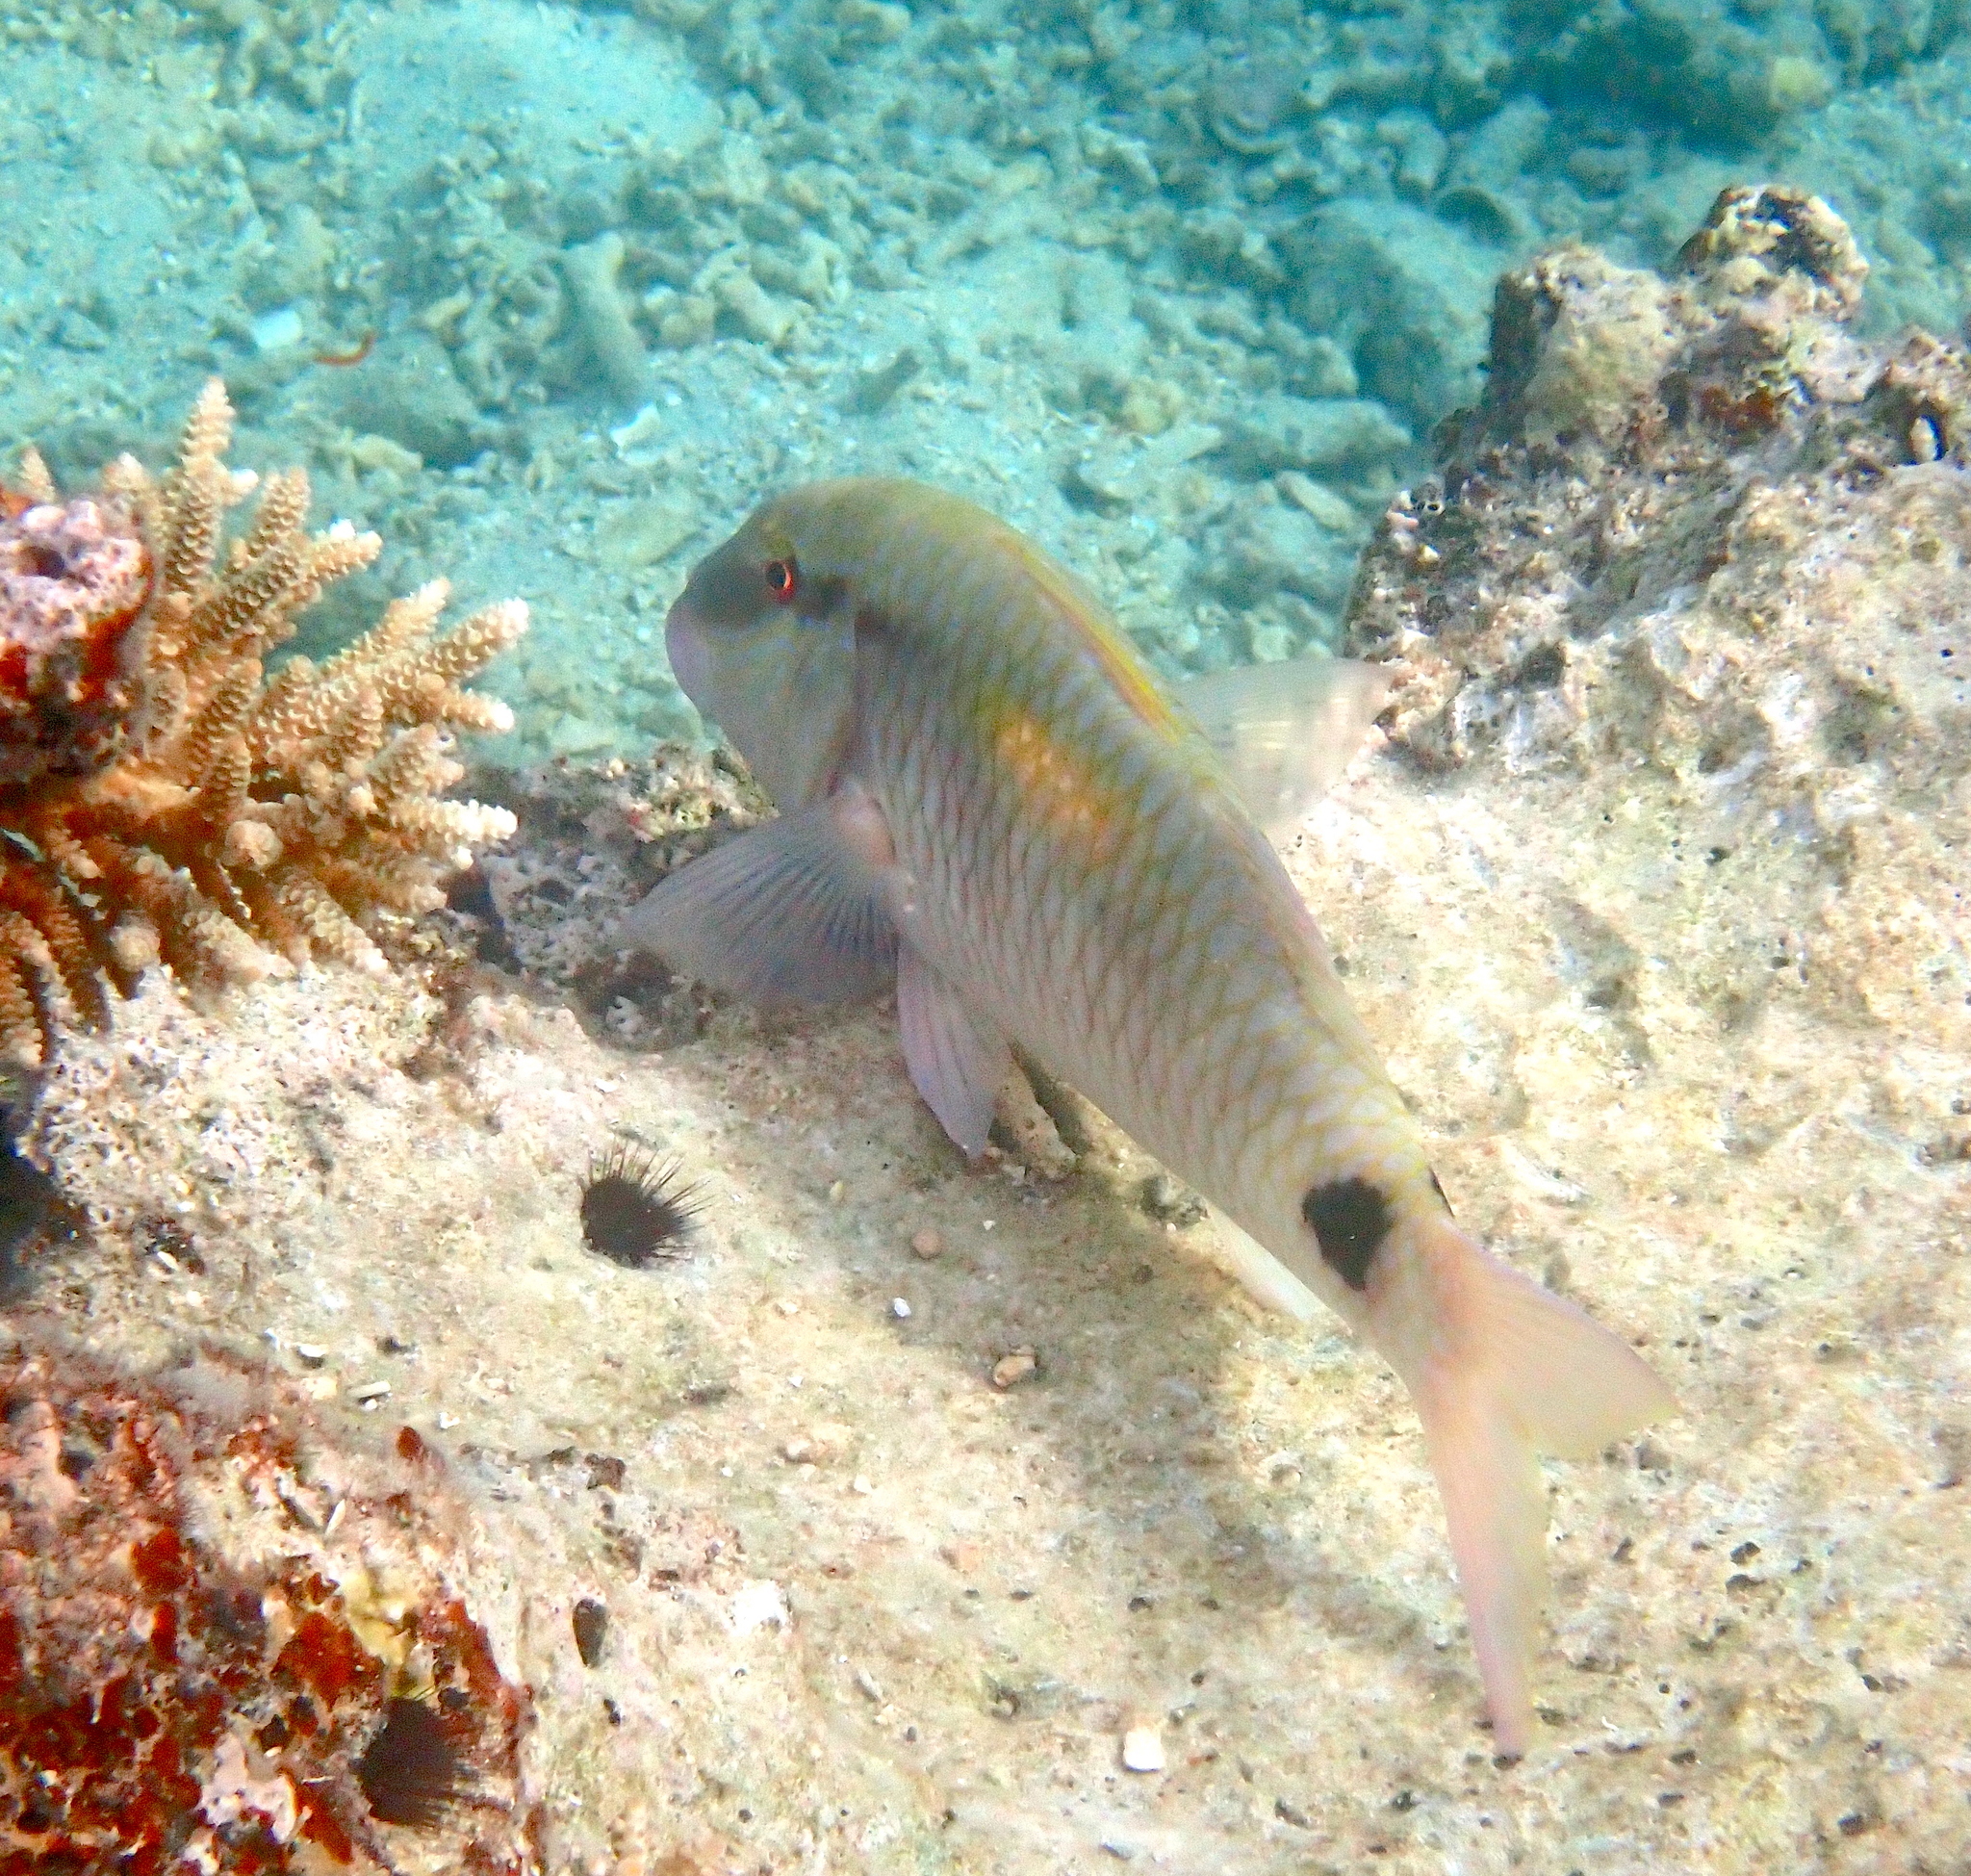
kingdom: Animalia
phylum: Chordata
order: Perciformes
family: Mullidae
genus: Parupeneus
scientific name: Parupeneus indicus
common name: Indian goatfish
